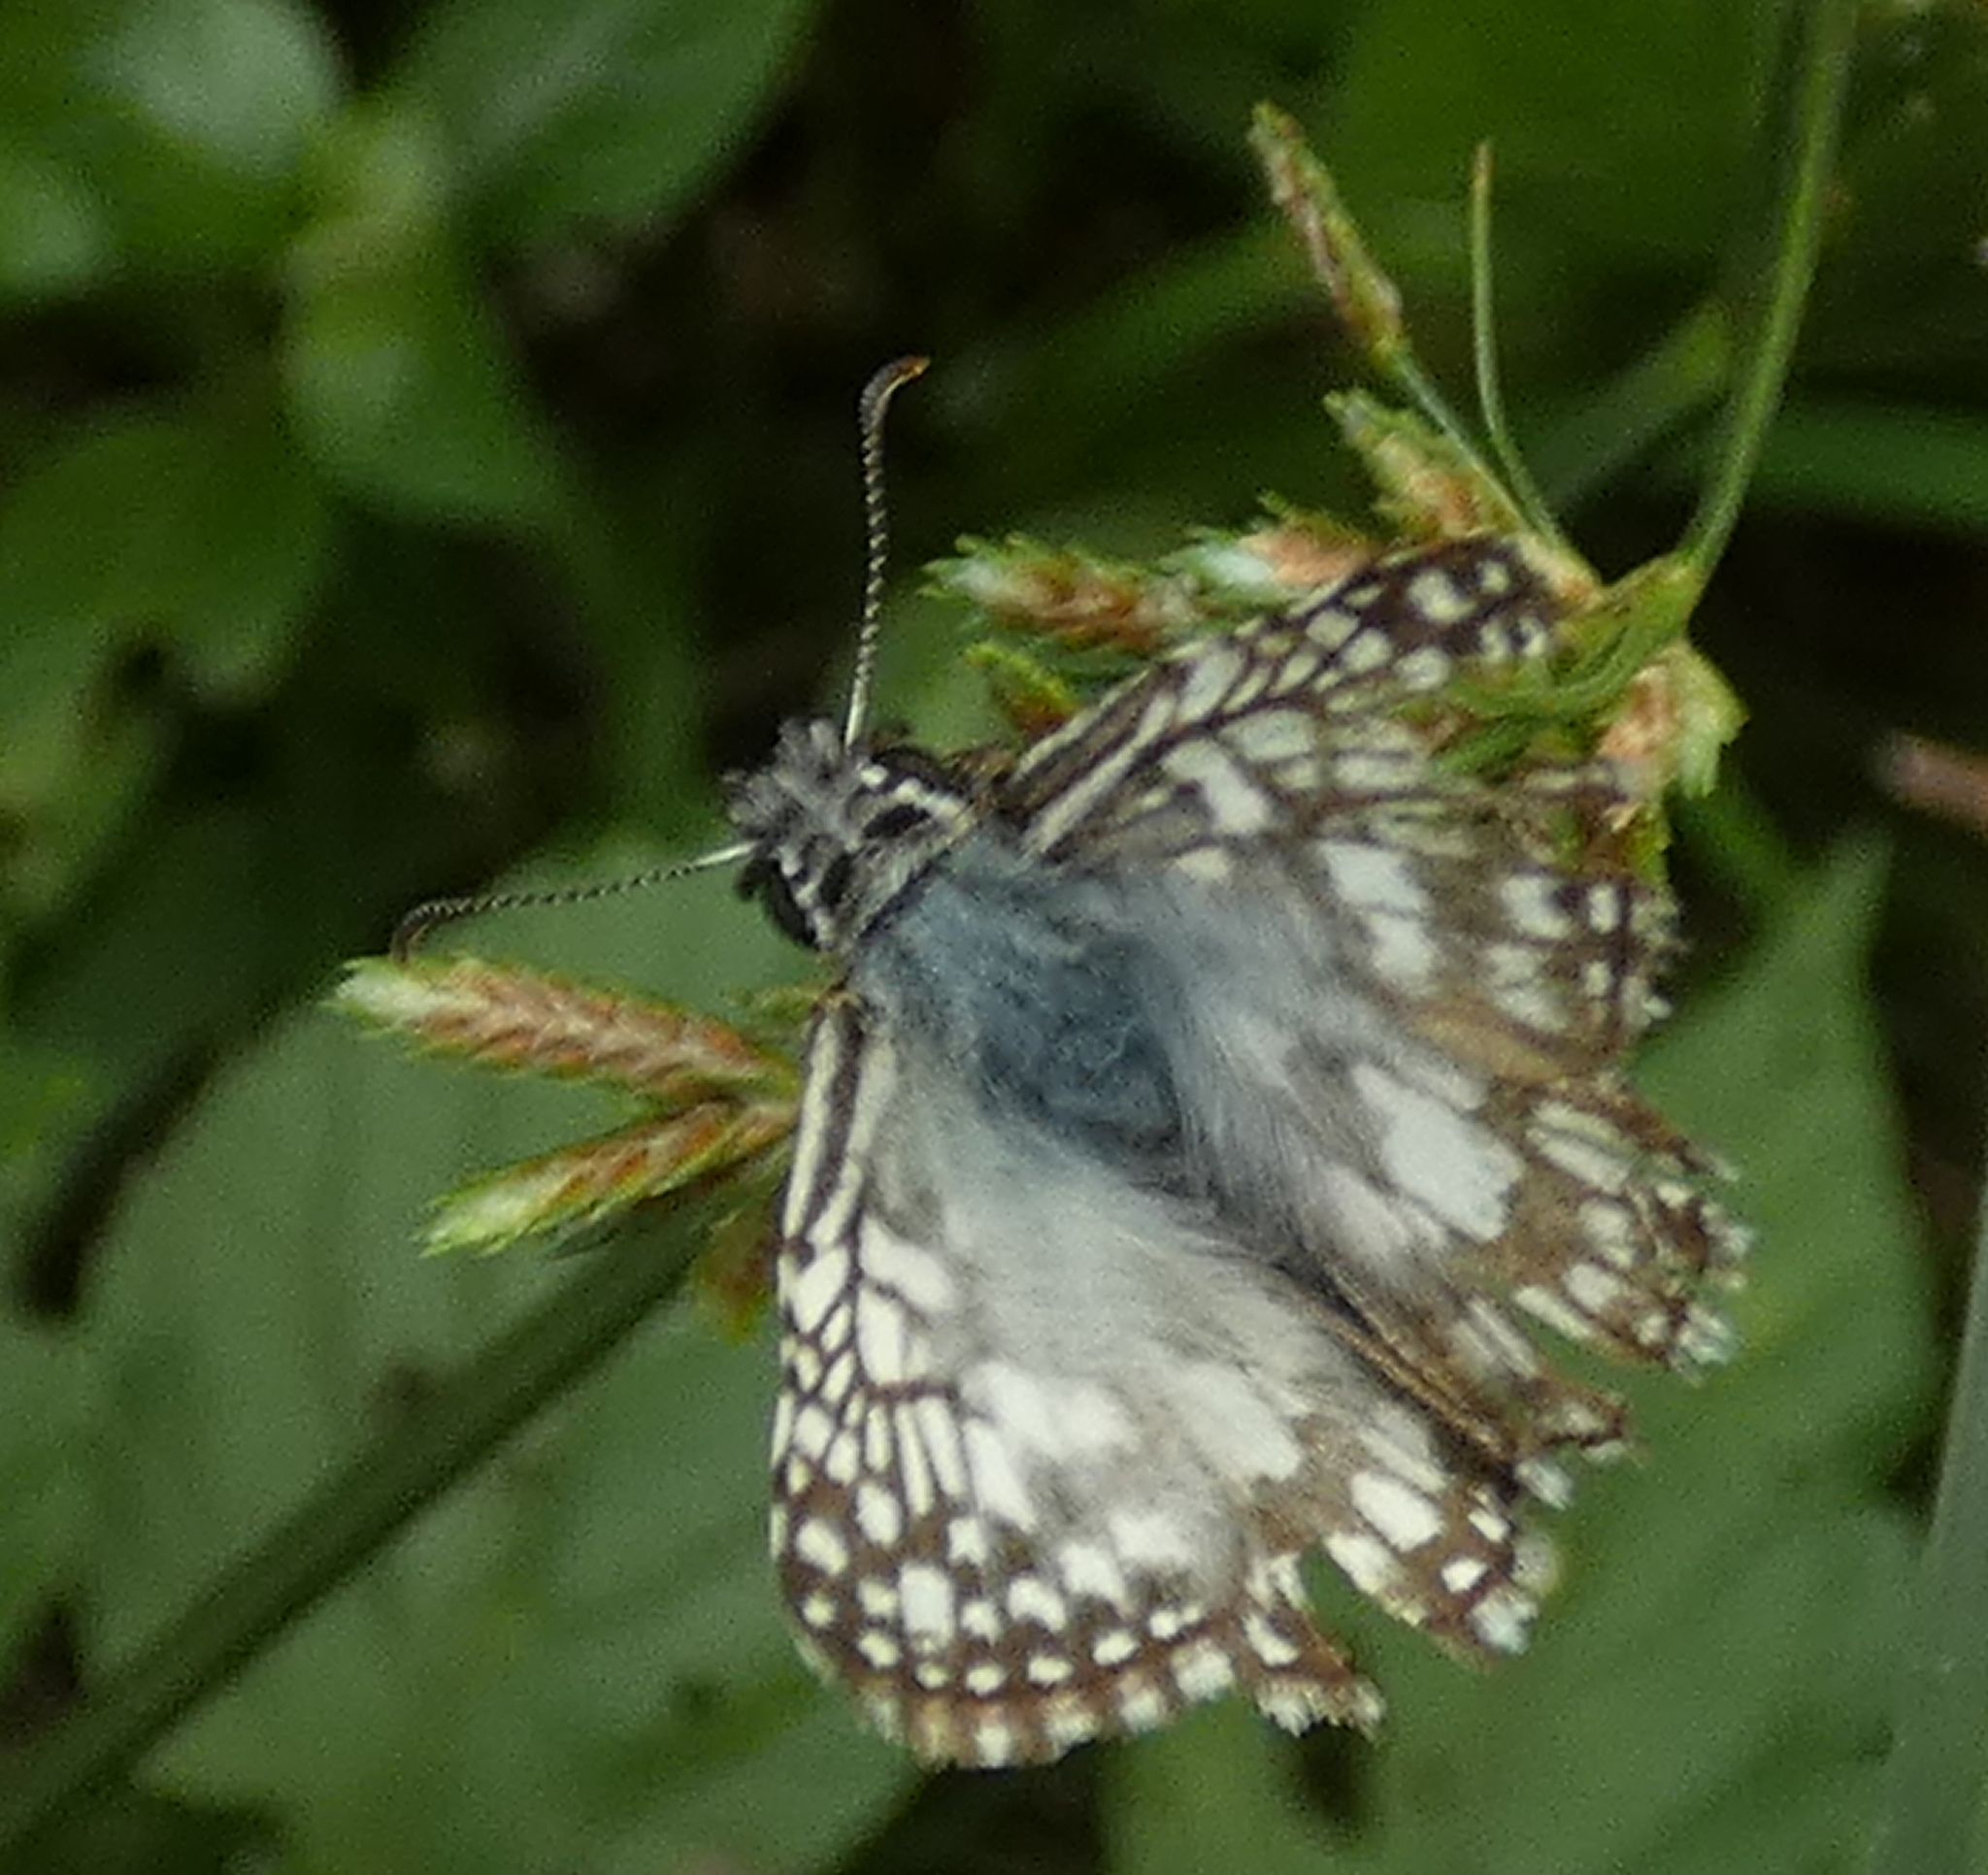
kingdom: Animalia
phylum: Arthropoda
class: Insecta
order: Lepidoptera
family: Hesperiidae
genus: Pyrgus
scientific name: Pyrgus oileus
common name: Tropical checkered-skipper
